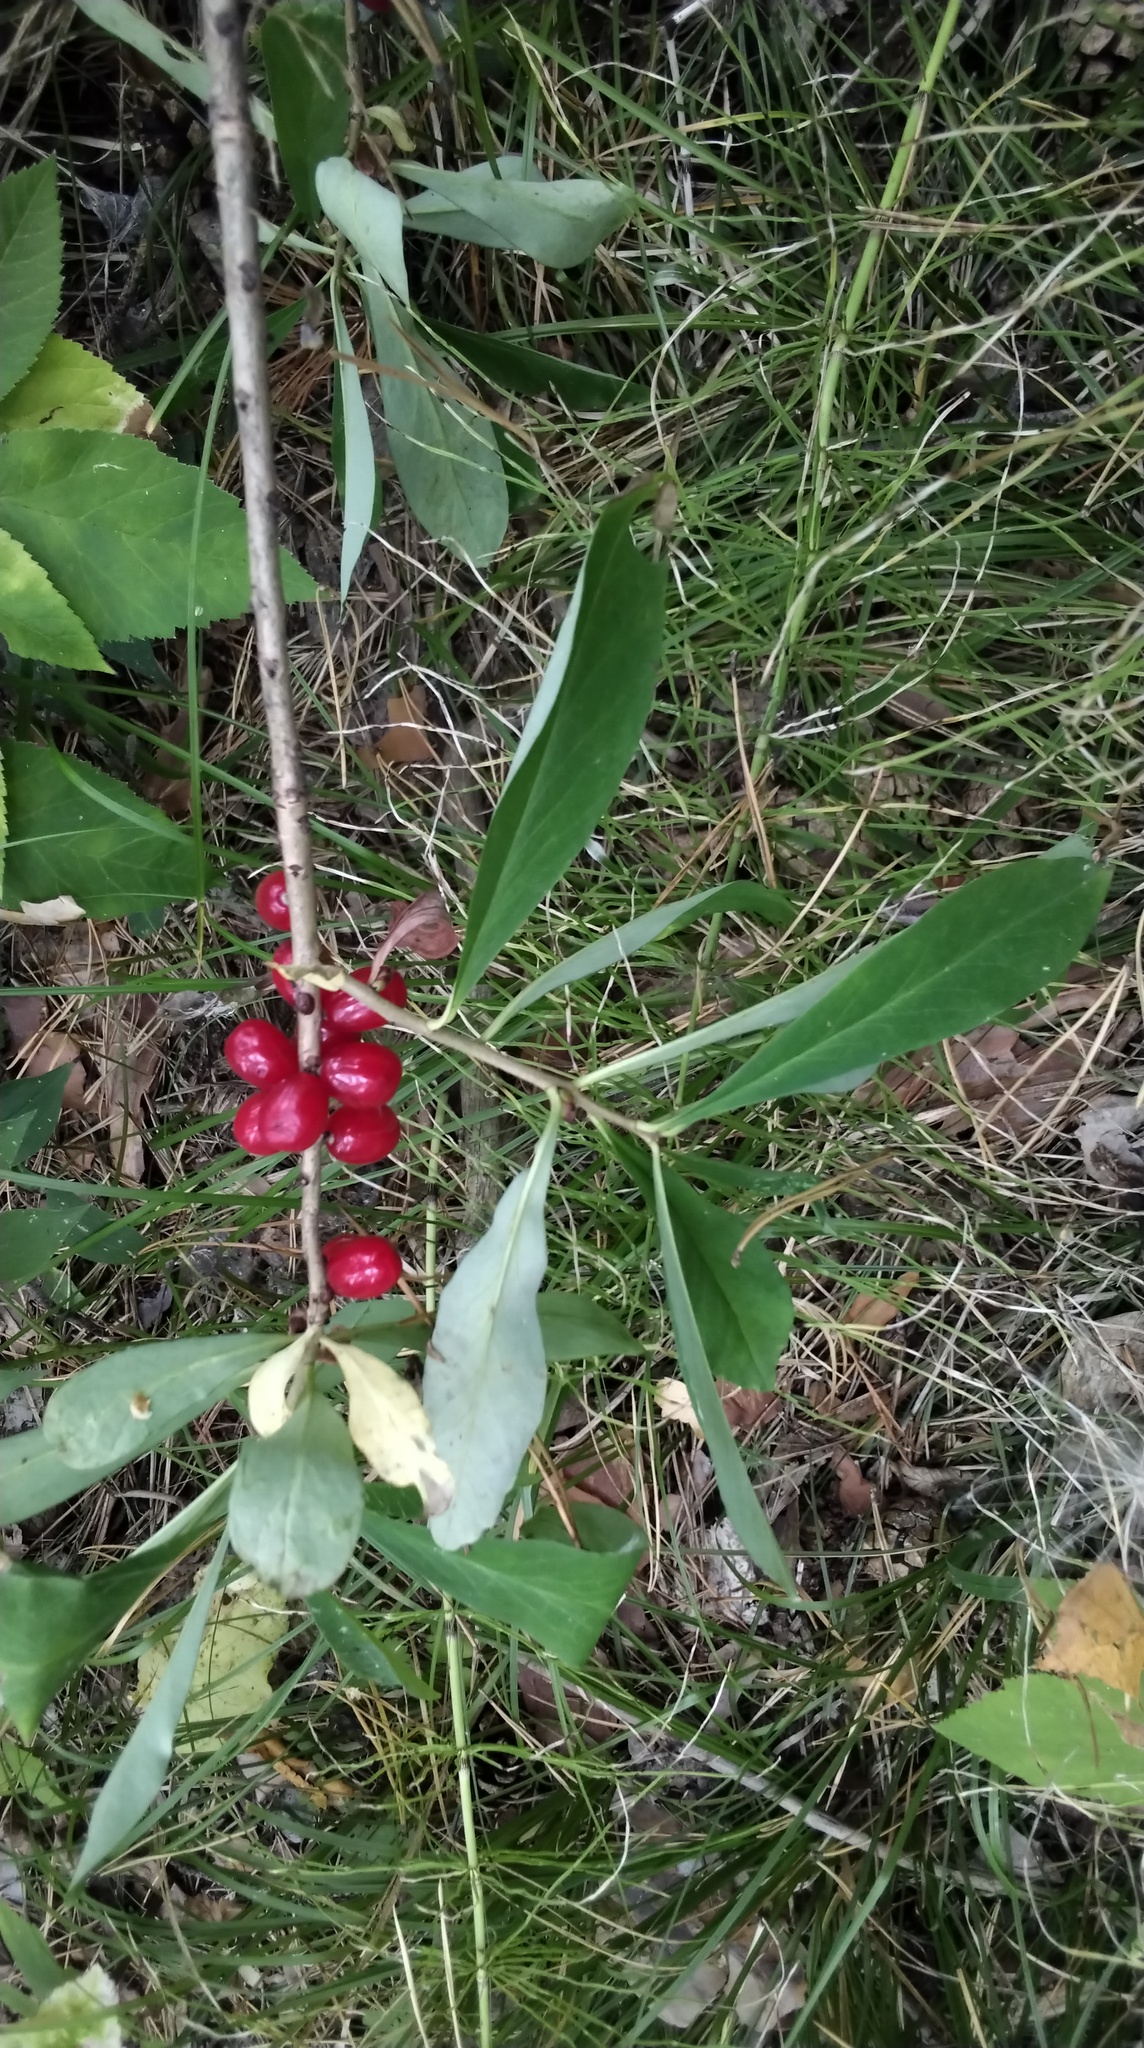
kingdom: Plantae
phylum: Tracheophyta
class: Magnoliopsida
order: Malvales
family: Thymelaeaceae
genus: Daphne
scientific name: Daphne mezereum
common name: Mezereon
